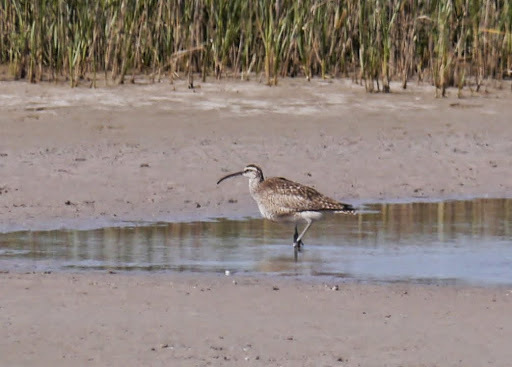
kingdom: Animalia
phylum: Chordata
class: Aves
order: Charadriiformes
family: Scolopacidae
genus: Numenius
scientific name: Numenius phaeopus
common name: Whimbrel
